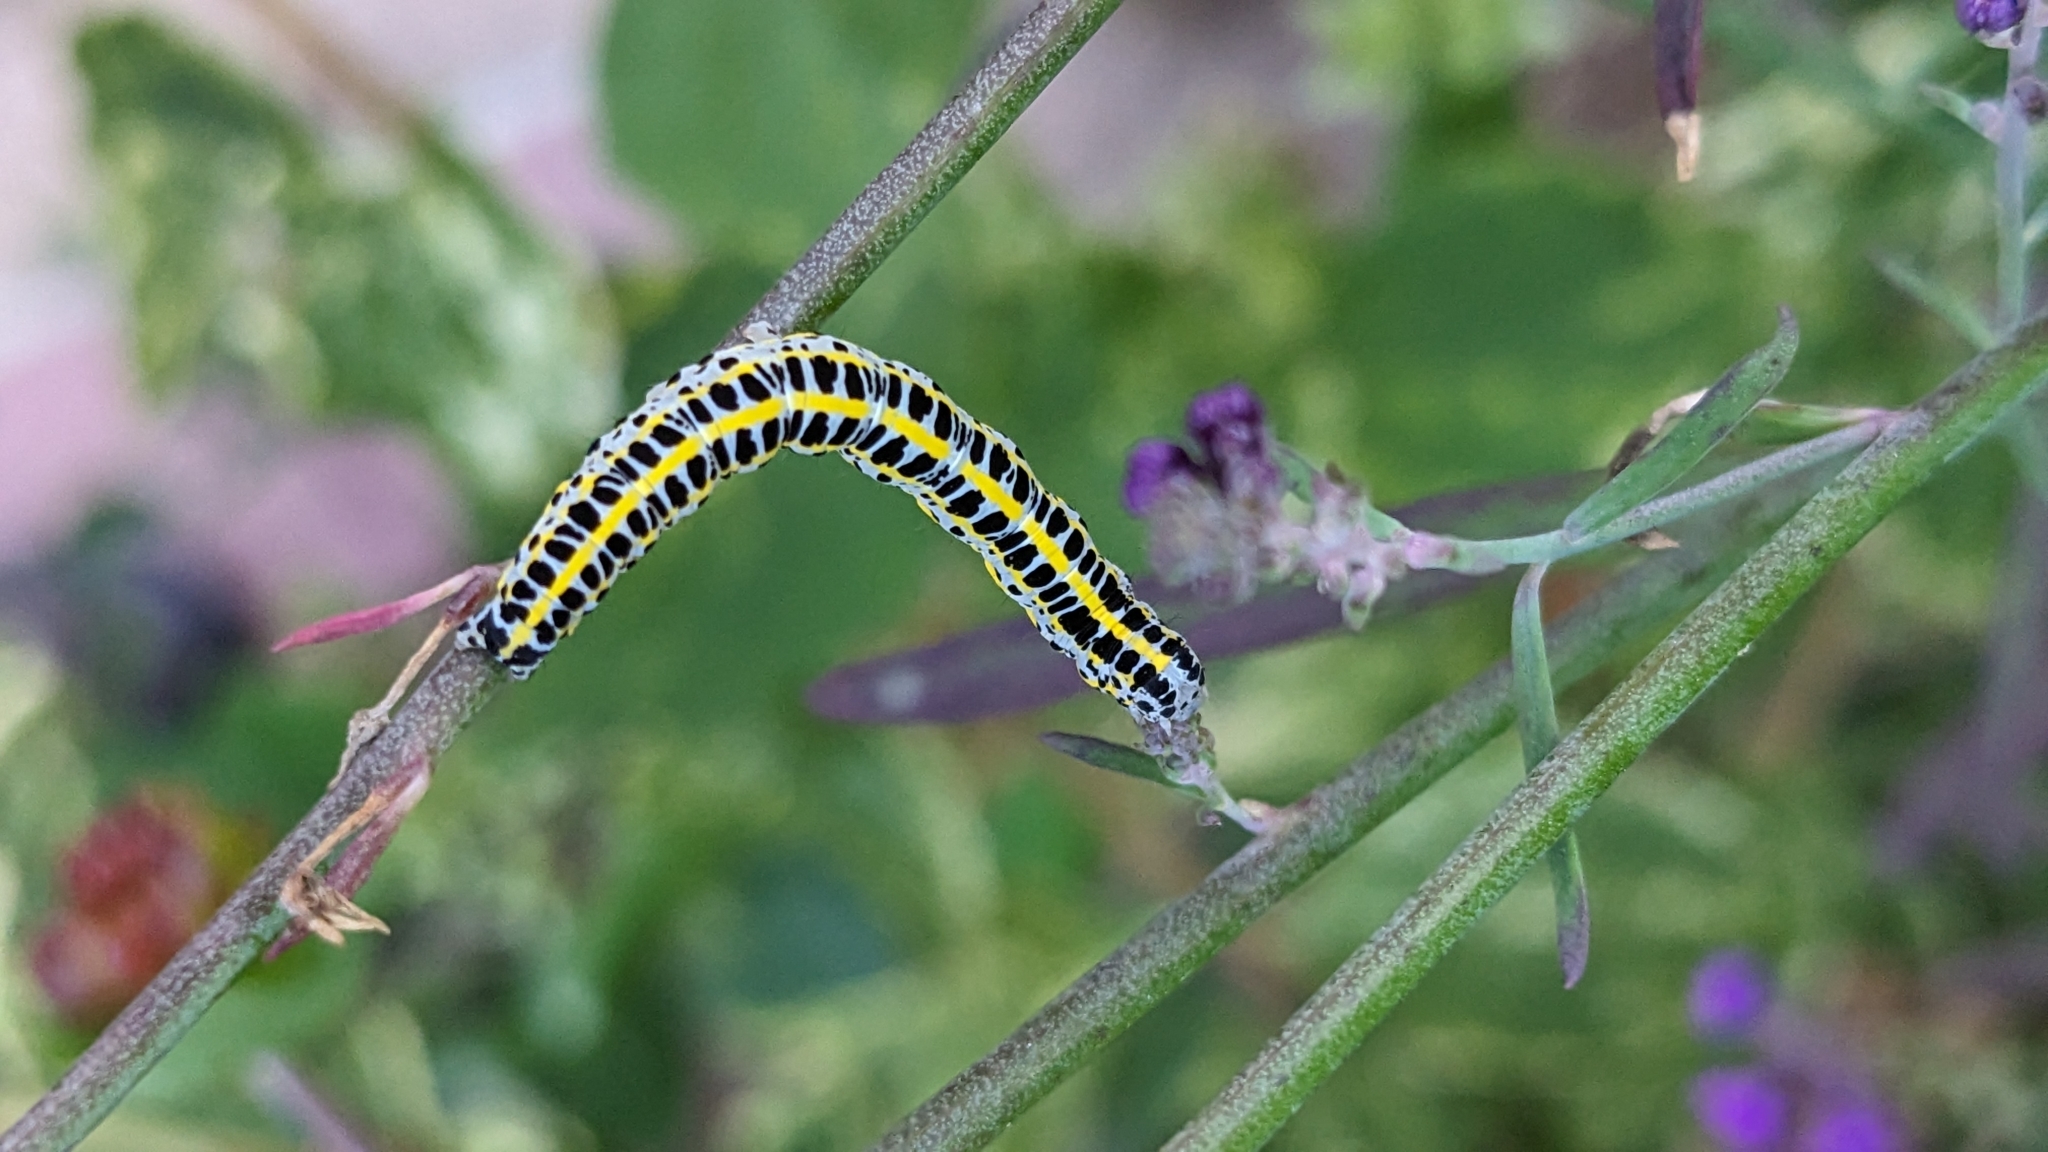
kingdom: Animalia
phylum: Arthropoda
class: Insecta
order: Lepidoptera
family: Noctuidae
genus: Calophasia
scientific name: Calophasia lunula
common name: Toadflax brocade
